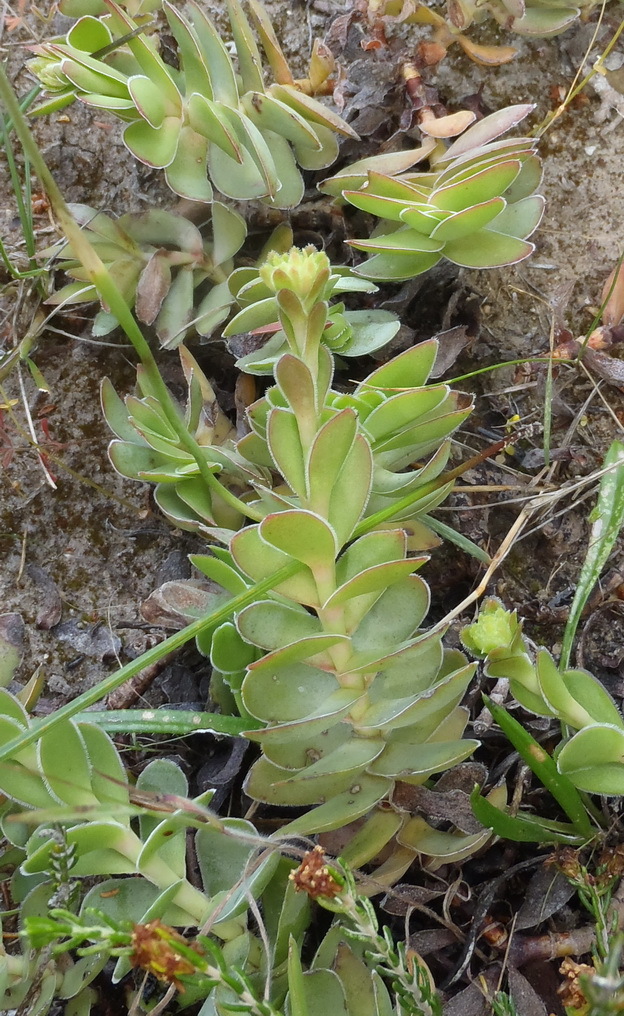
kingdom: Plantae
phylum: Tracheophyta
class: Magnoliopsida
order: Saxifragales
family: Crassulaceae
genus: Crassula
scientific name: Crassula ciliata
